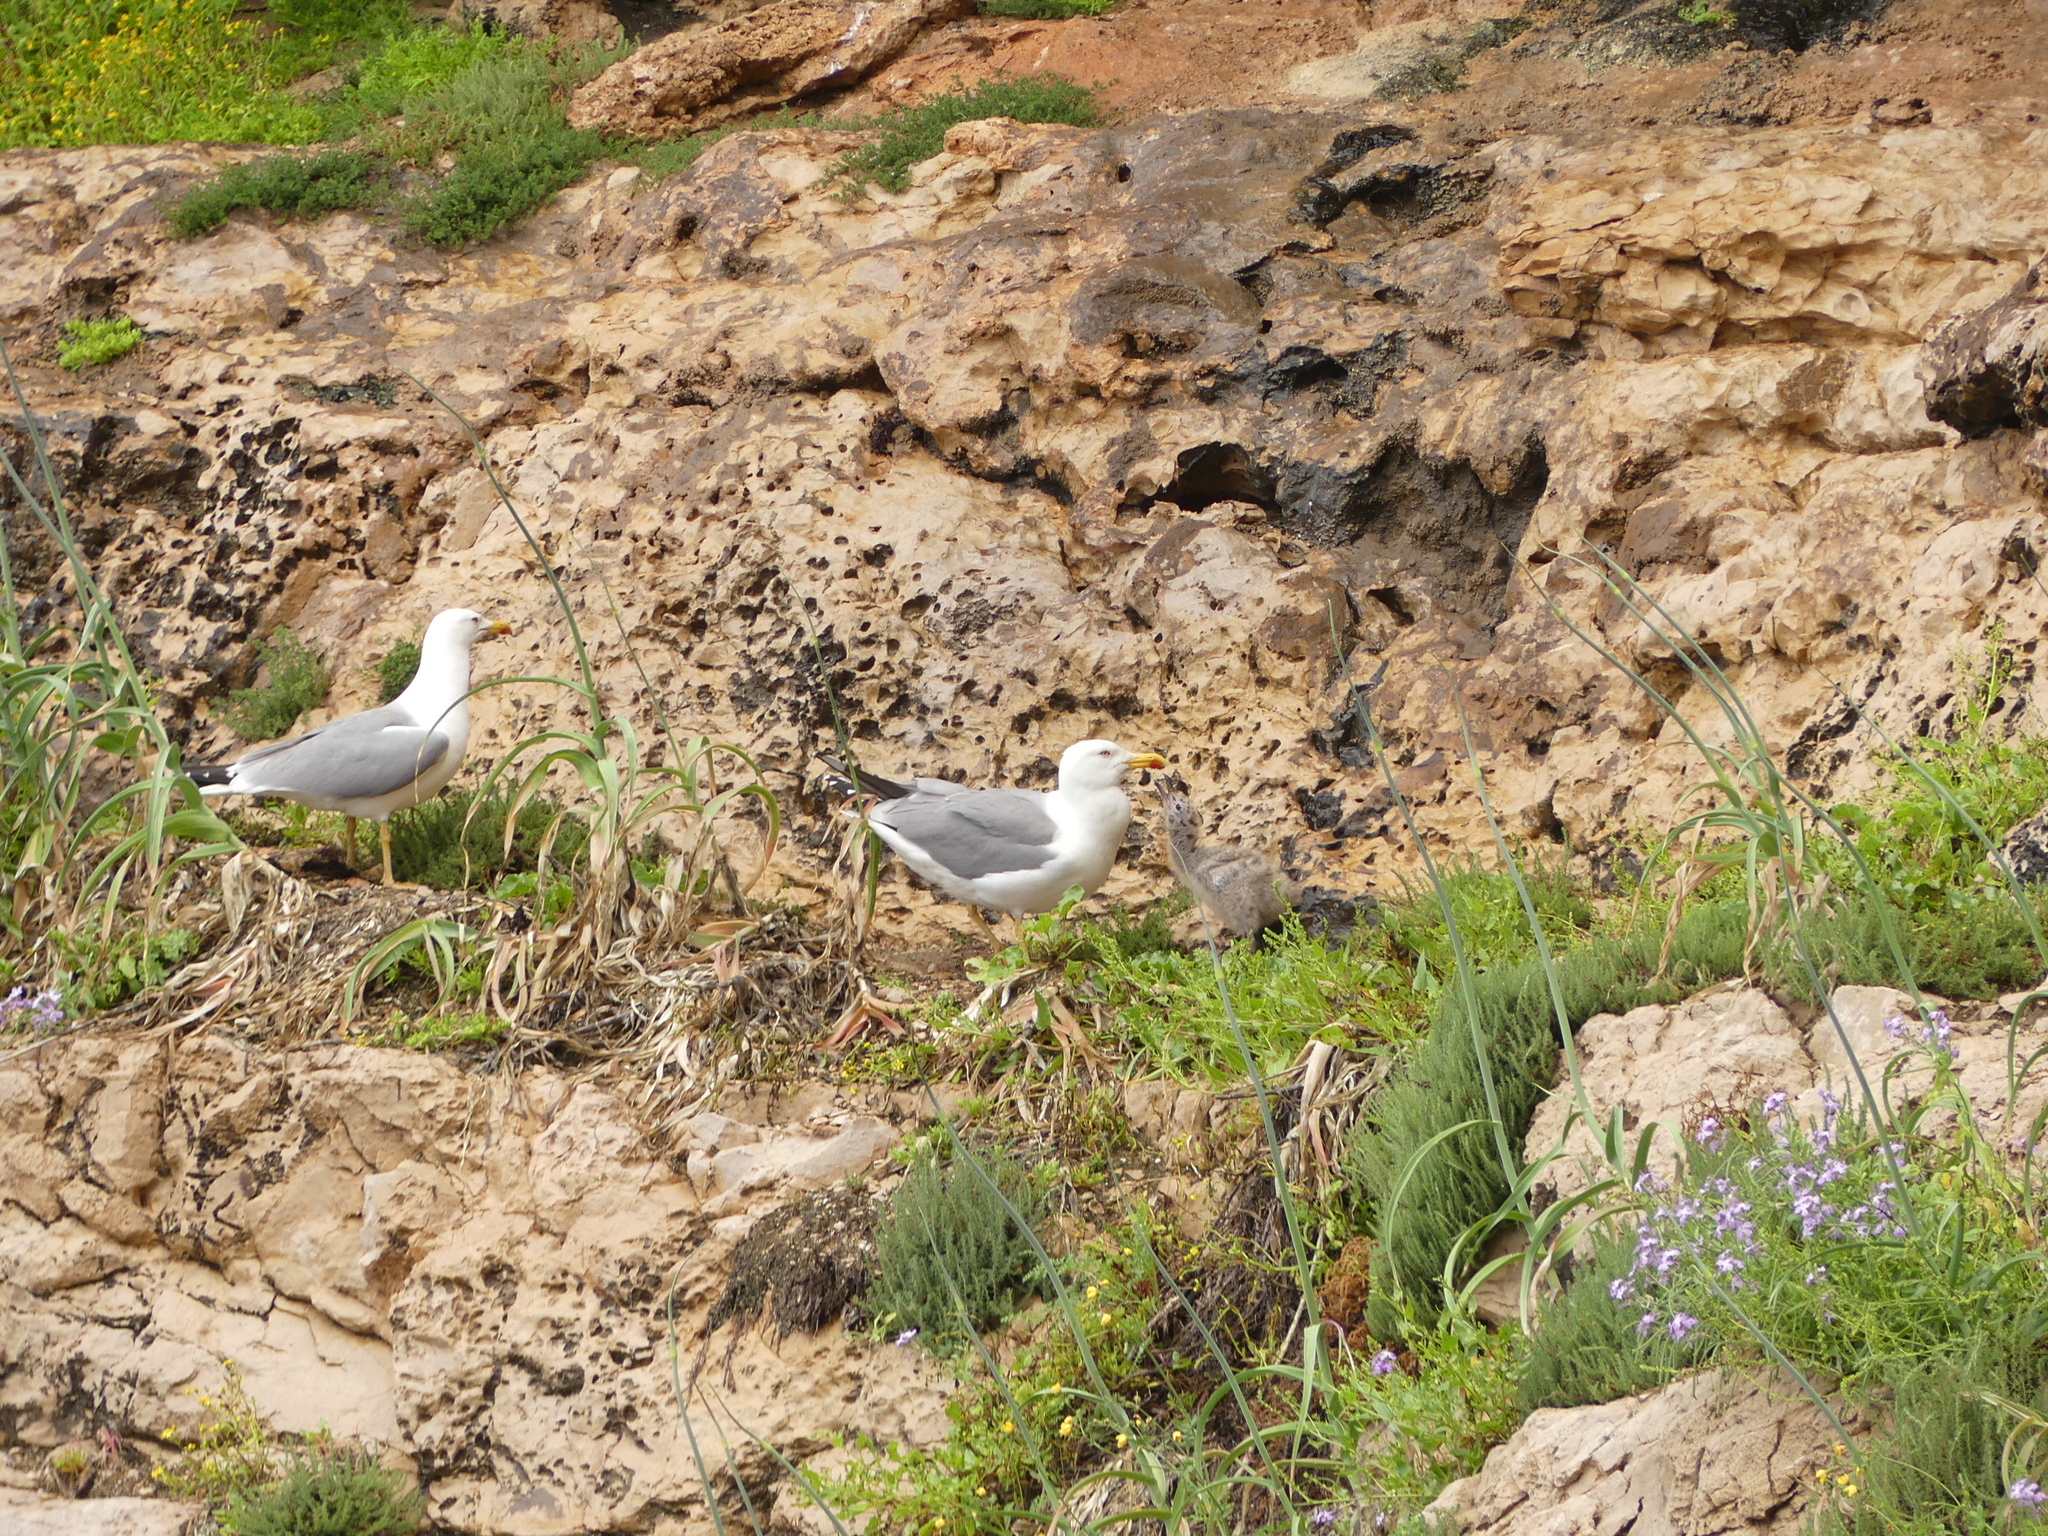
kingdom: Animalia
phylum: Chordata
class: Aves
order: Charadriiformes
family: Laridae
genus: Larus
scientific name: Larus michahellis
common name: Yellow-legged gull
